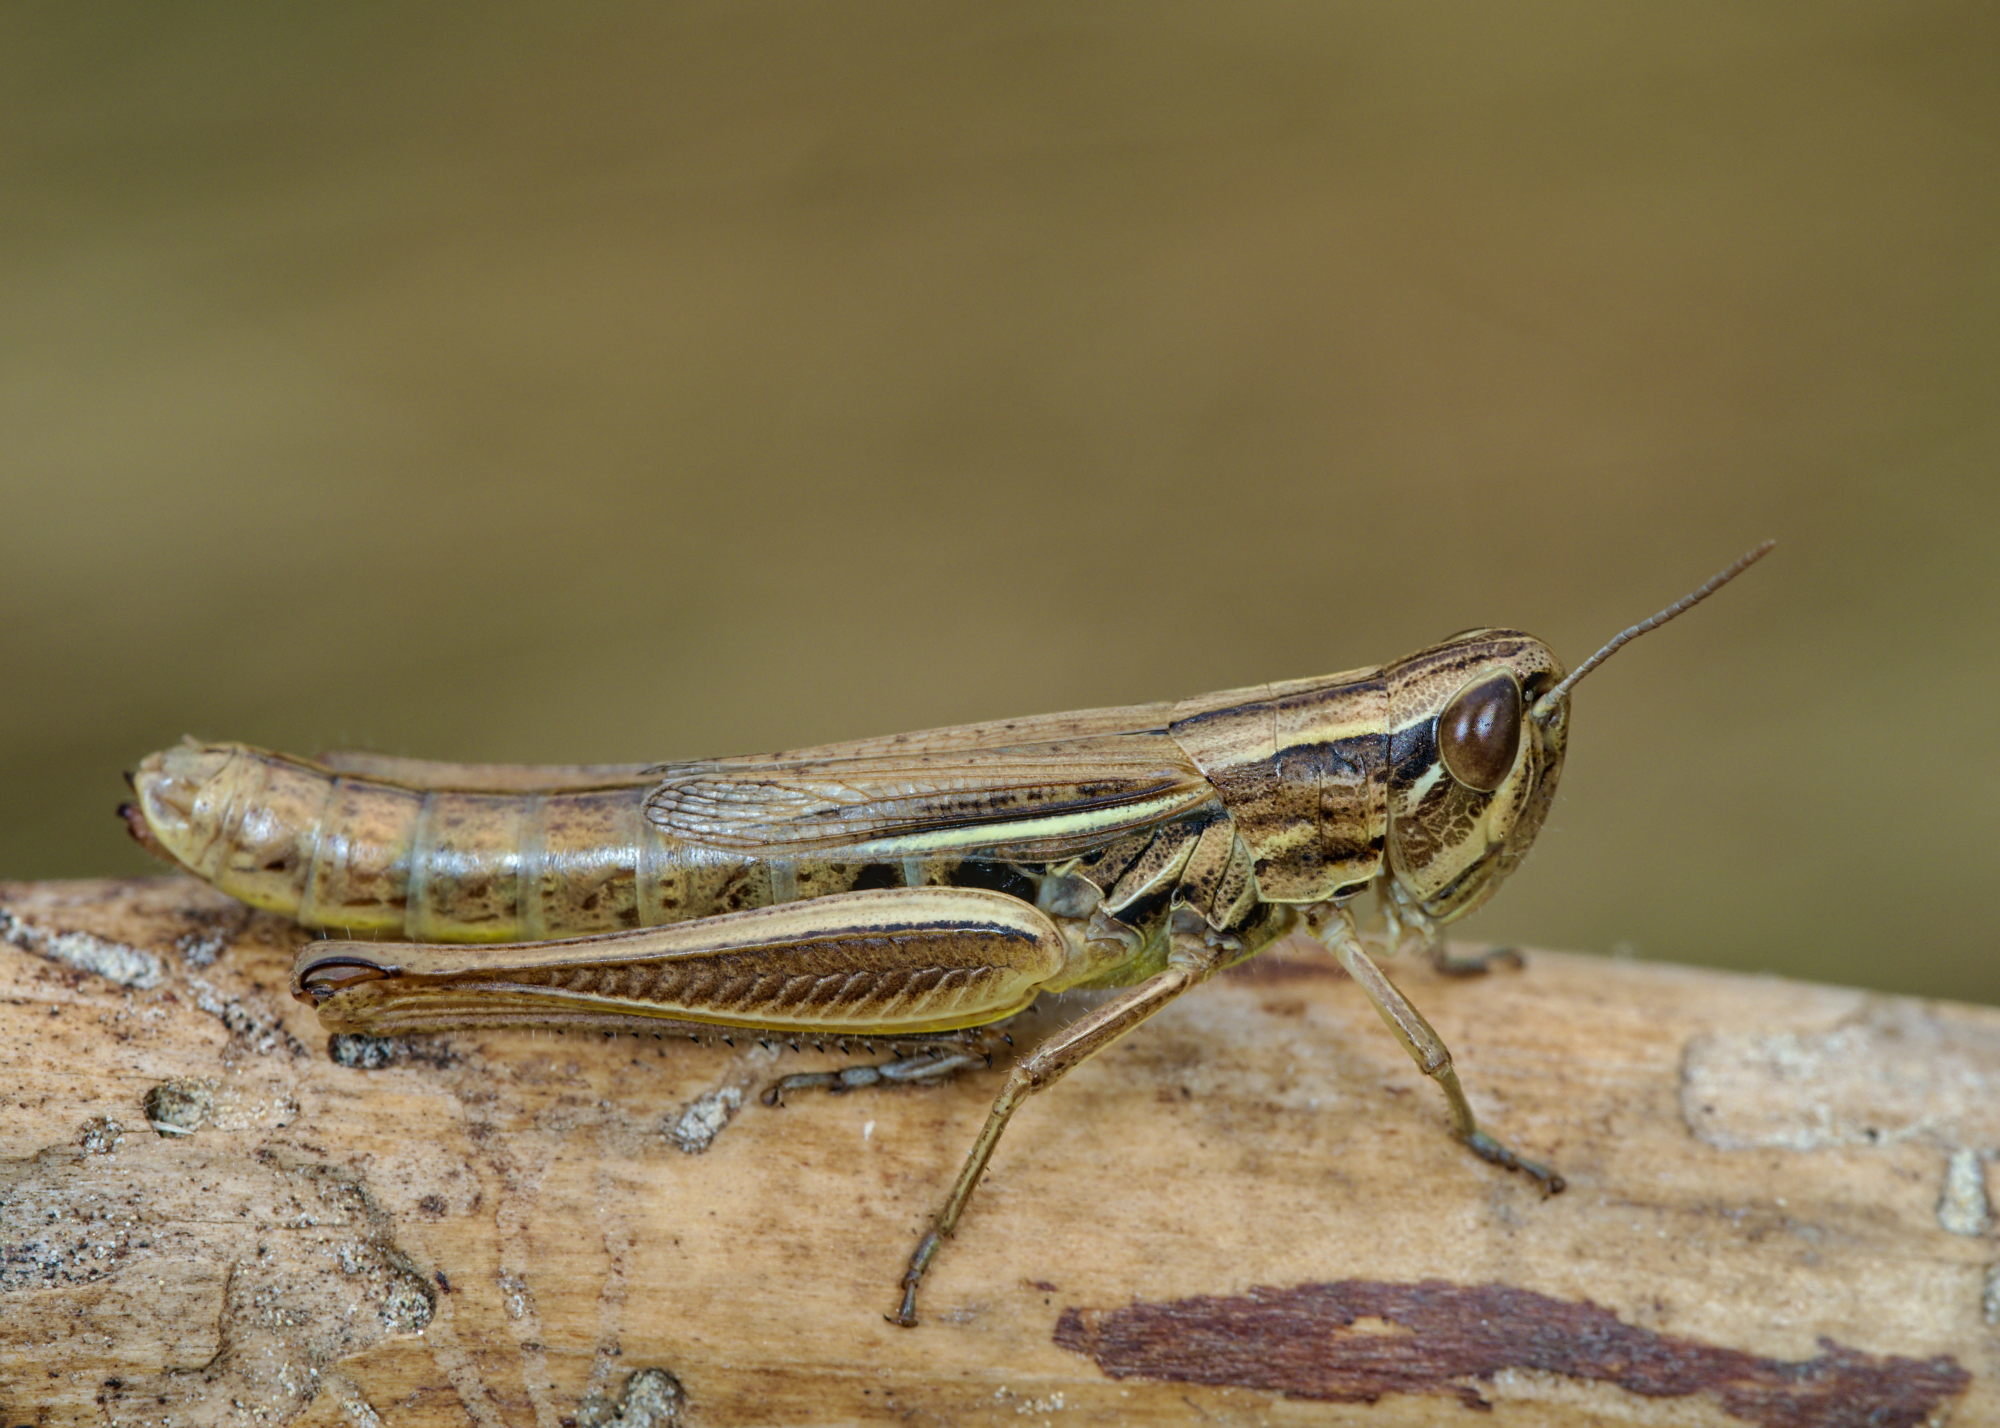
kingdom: Animalia
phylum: Arthropoda
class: Insecta
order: Orthoptera
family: Acrididae
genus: Euchorthippus
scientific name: Euchorthippus declivus
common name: Common straw grasshopper
